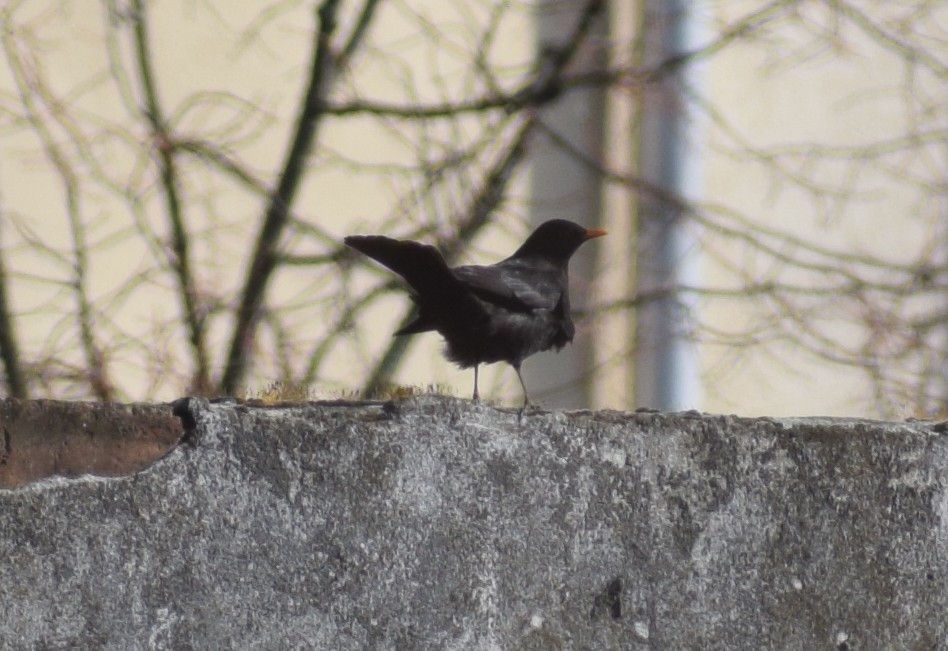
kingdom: Animalia
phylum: Chordata
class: Aves
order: Passeriformes
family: Turdidae
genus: Turdus
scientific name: Turdus merula
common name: Common blackbird
